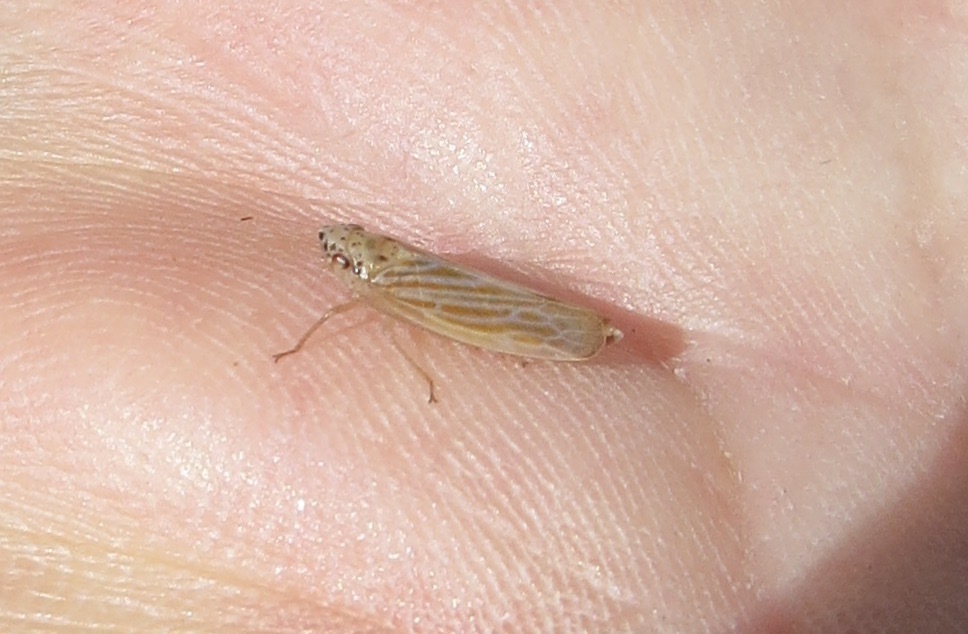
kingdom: Animalia
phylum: Arthropoda
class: Insecta
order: Hemiptera
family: Cicadellidae
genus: Pagaronia
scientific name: Pagaronia triunata
